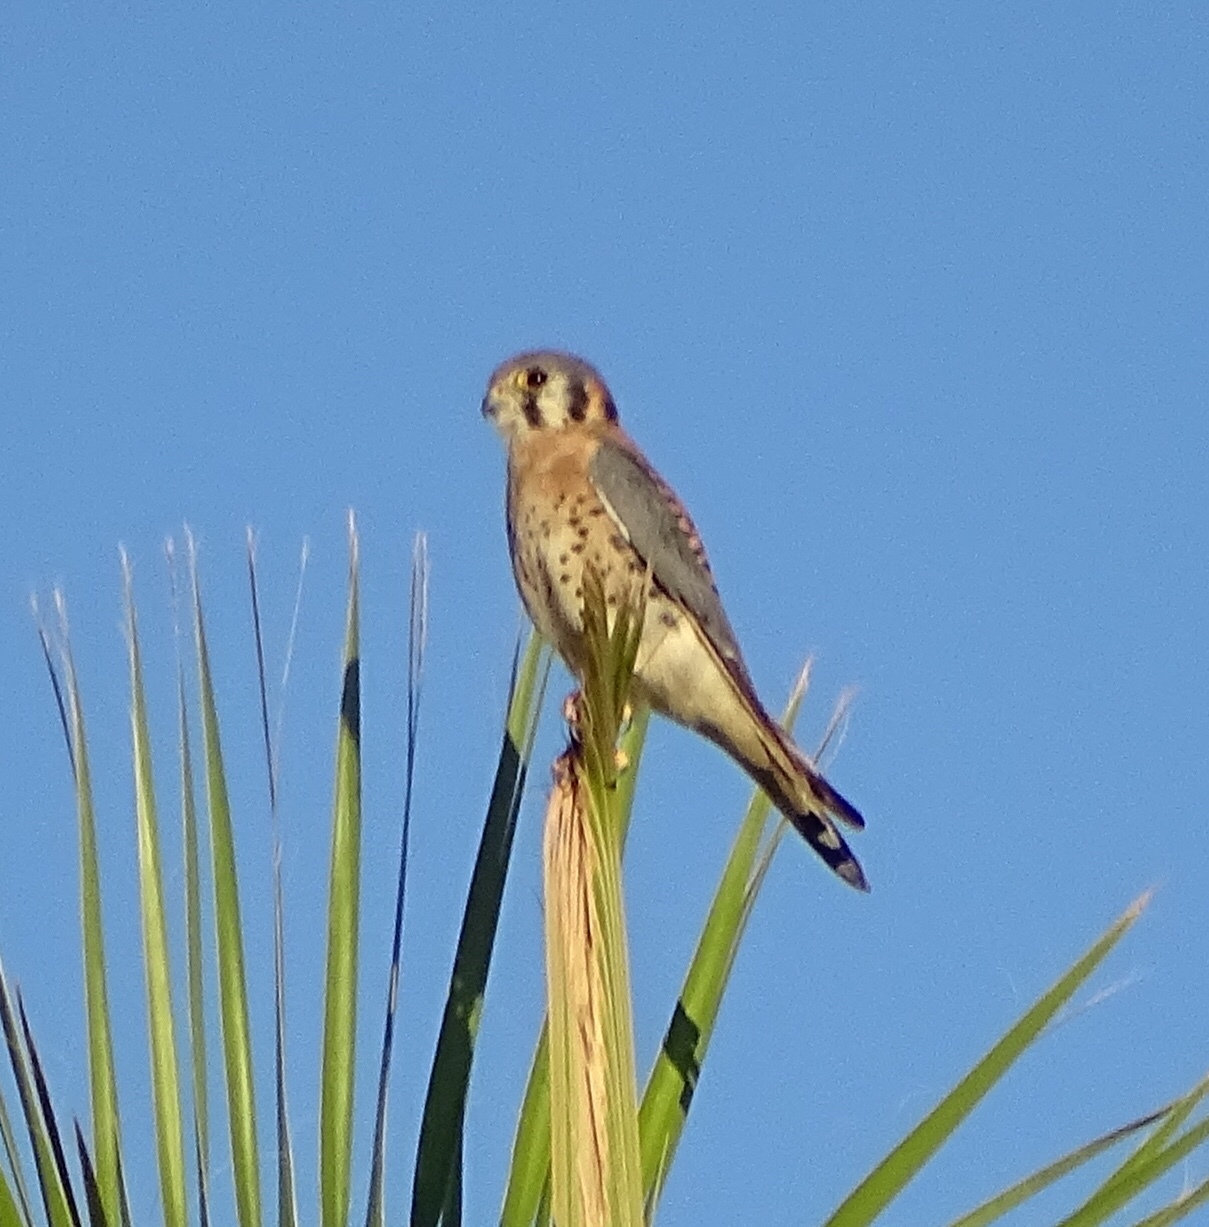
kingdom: Animalia
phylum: Chordata
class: Aves
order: Falconiformes
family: Falconidae
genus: Falco
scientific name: Falco sparverius
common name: American kestrel
